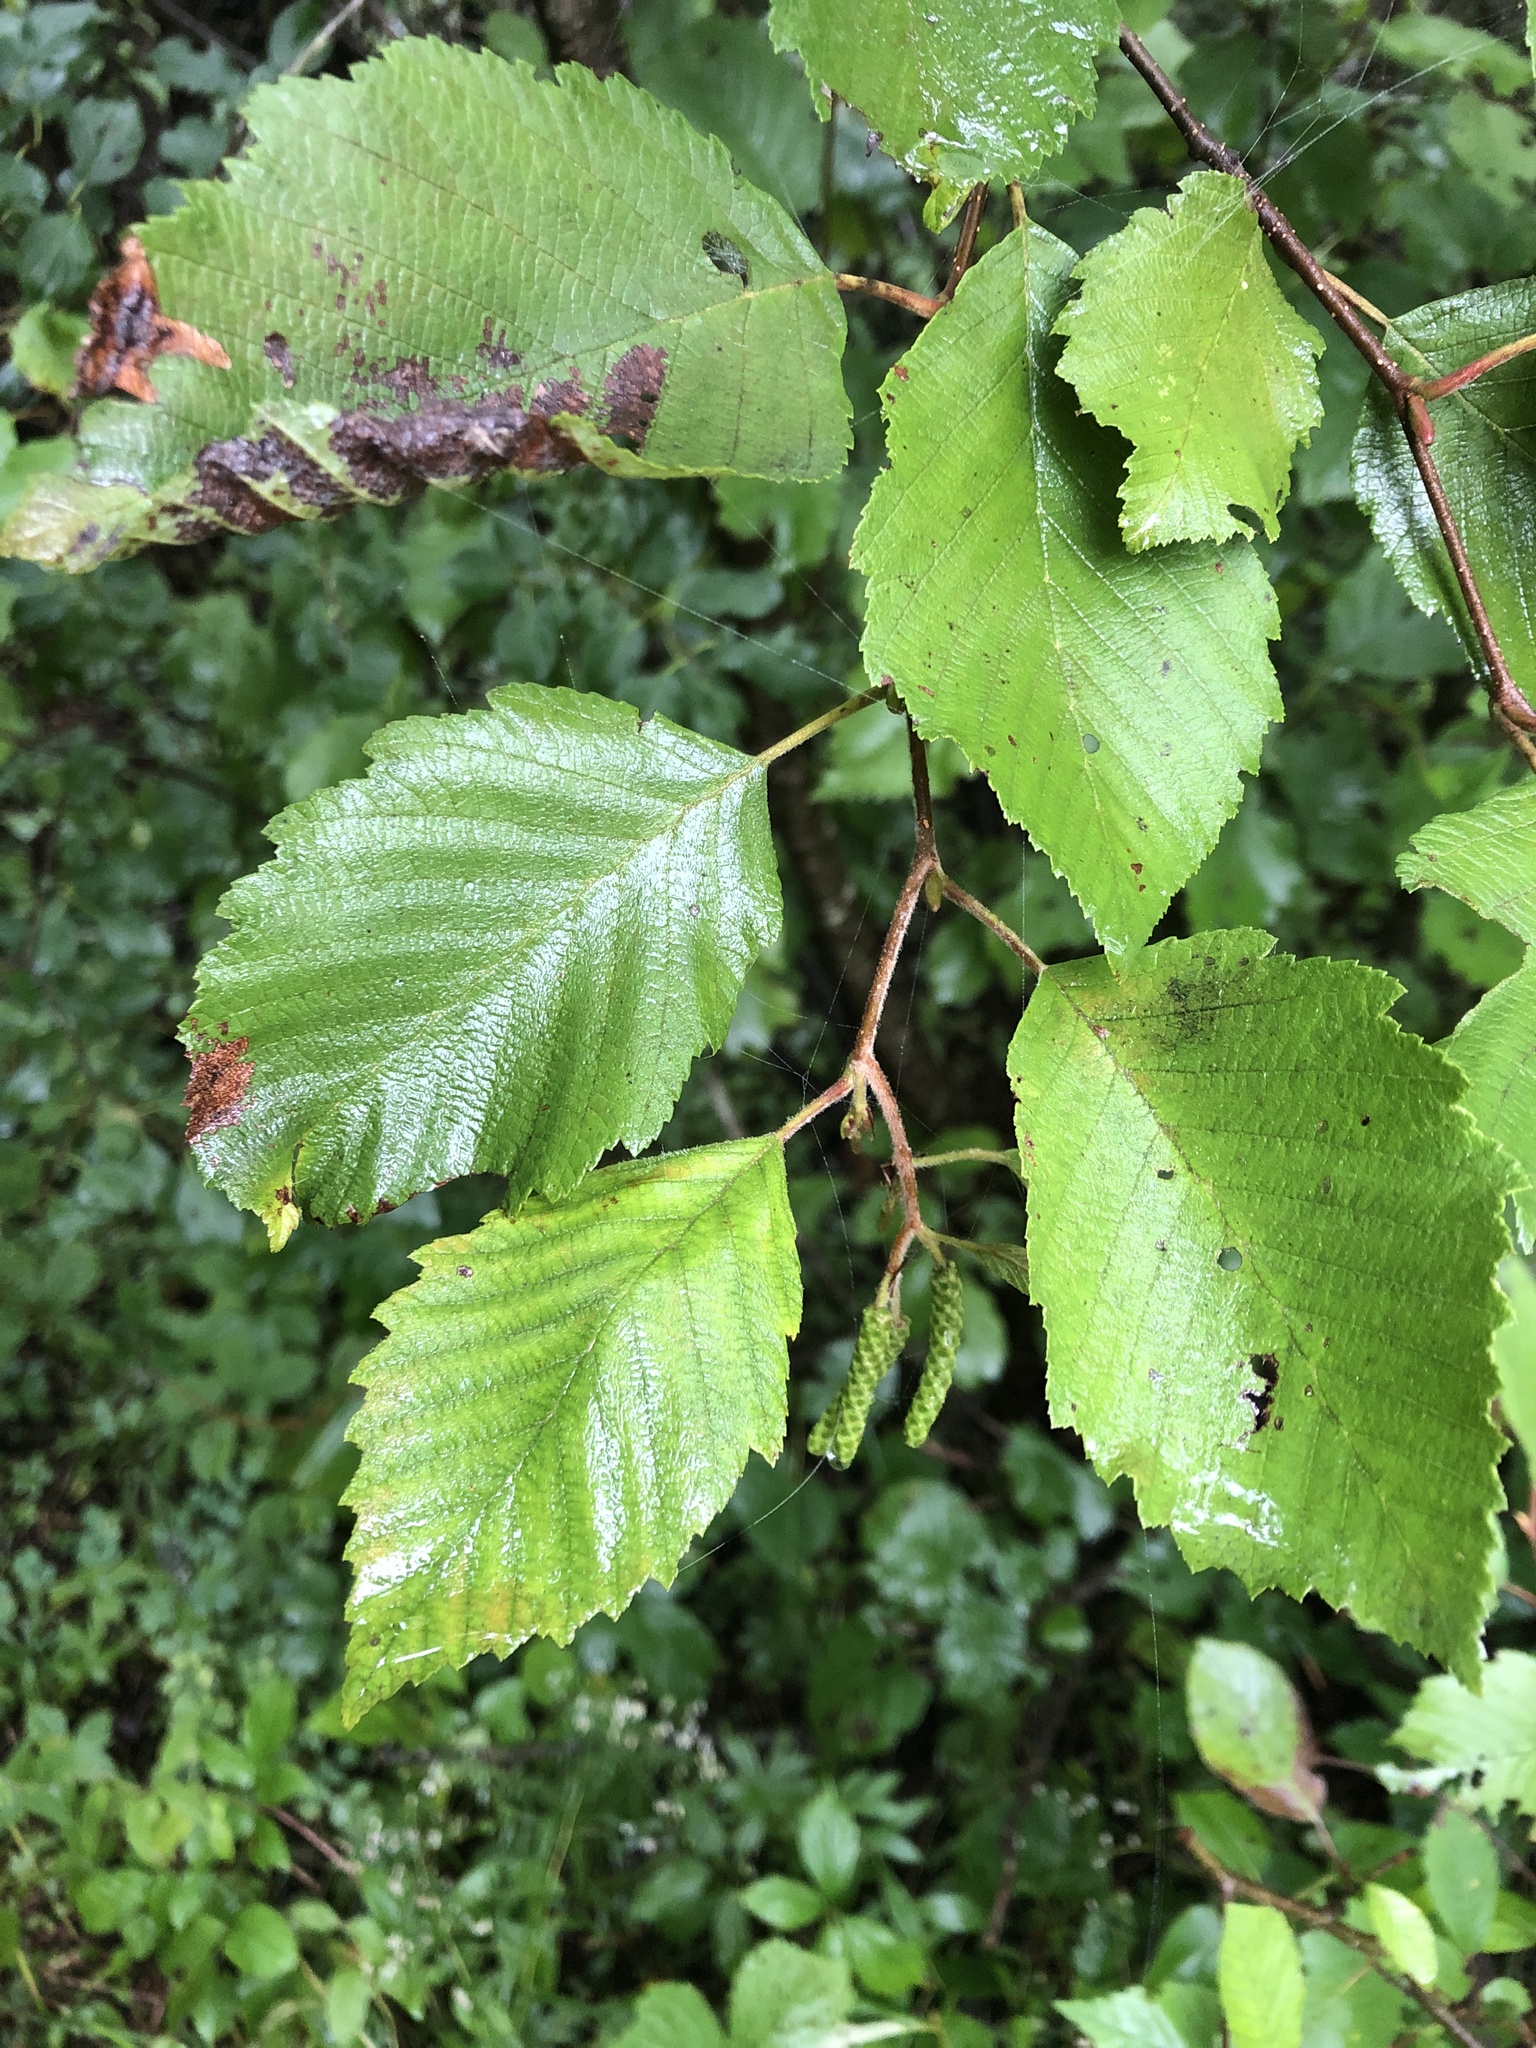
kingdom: Plantae
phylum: Tracheophyta
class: Magnoliopsida
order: Fagales
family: Betulaceae
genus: Alnus
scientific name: Alnus incana
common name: Grey alder
